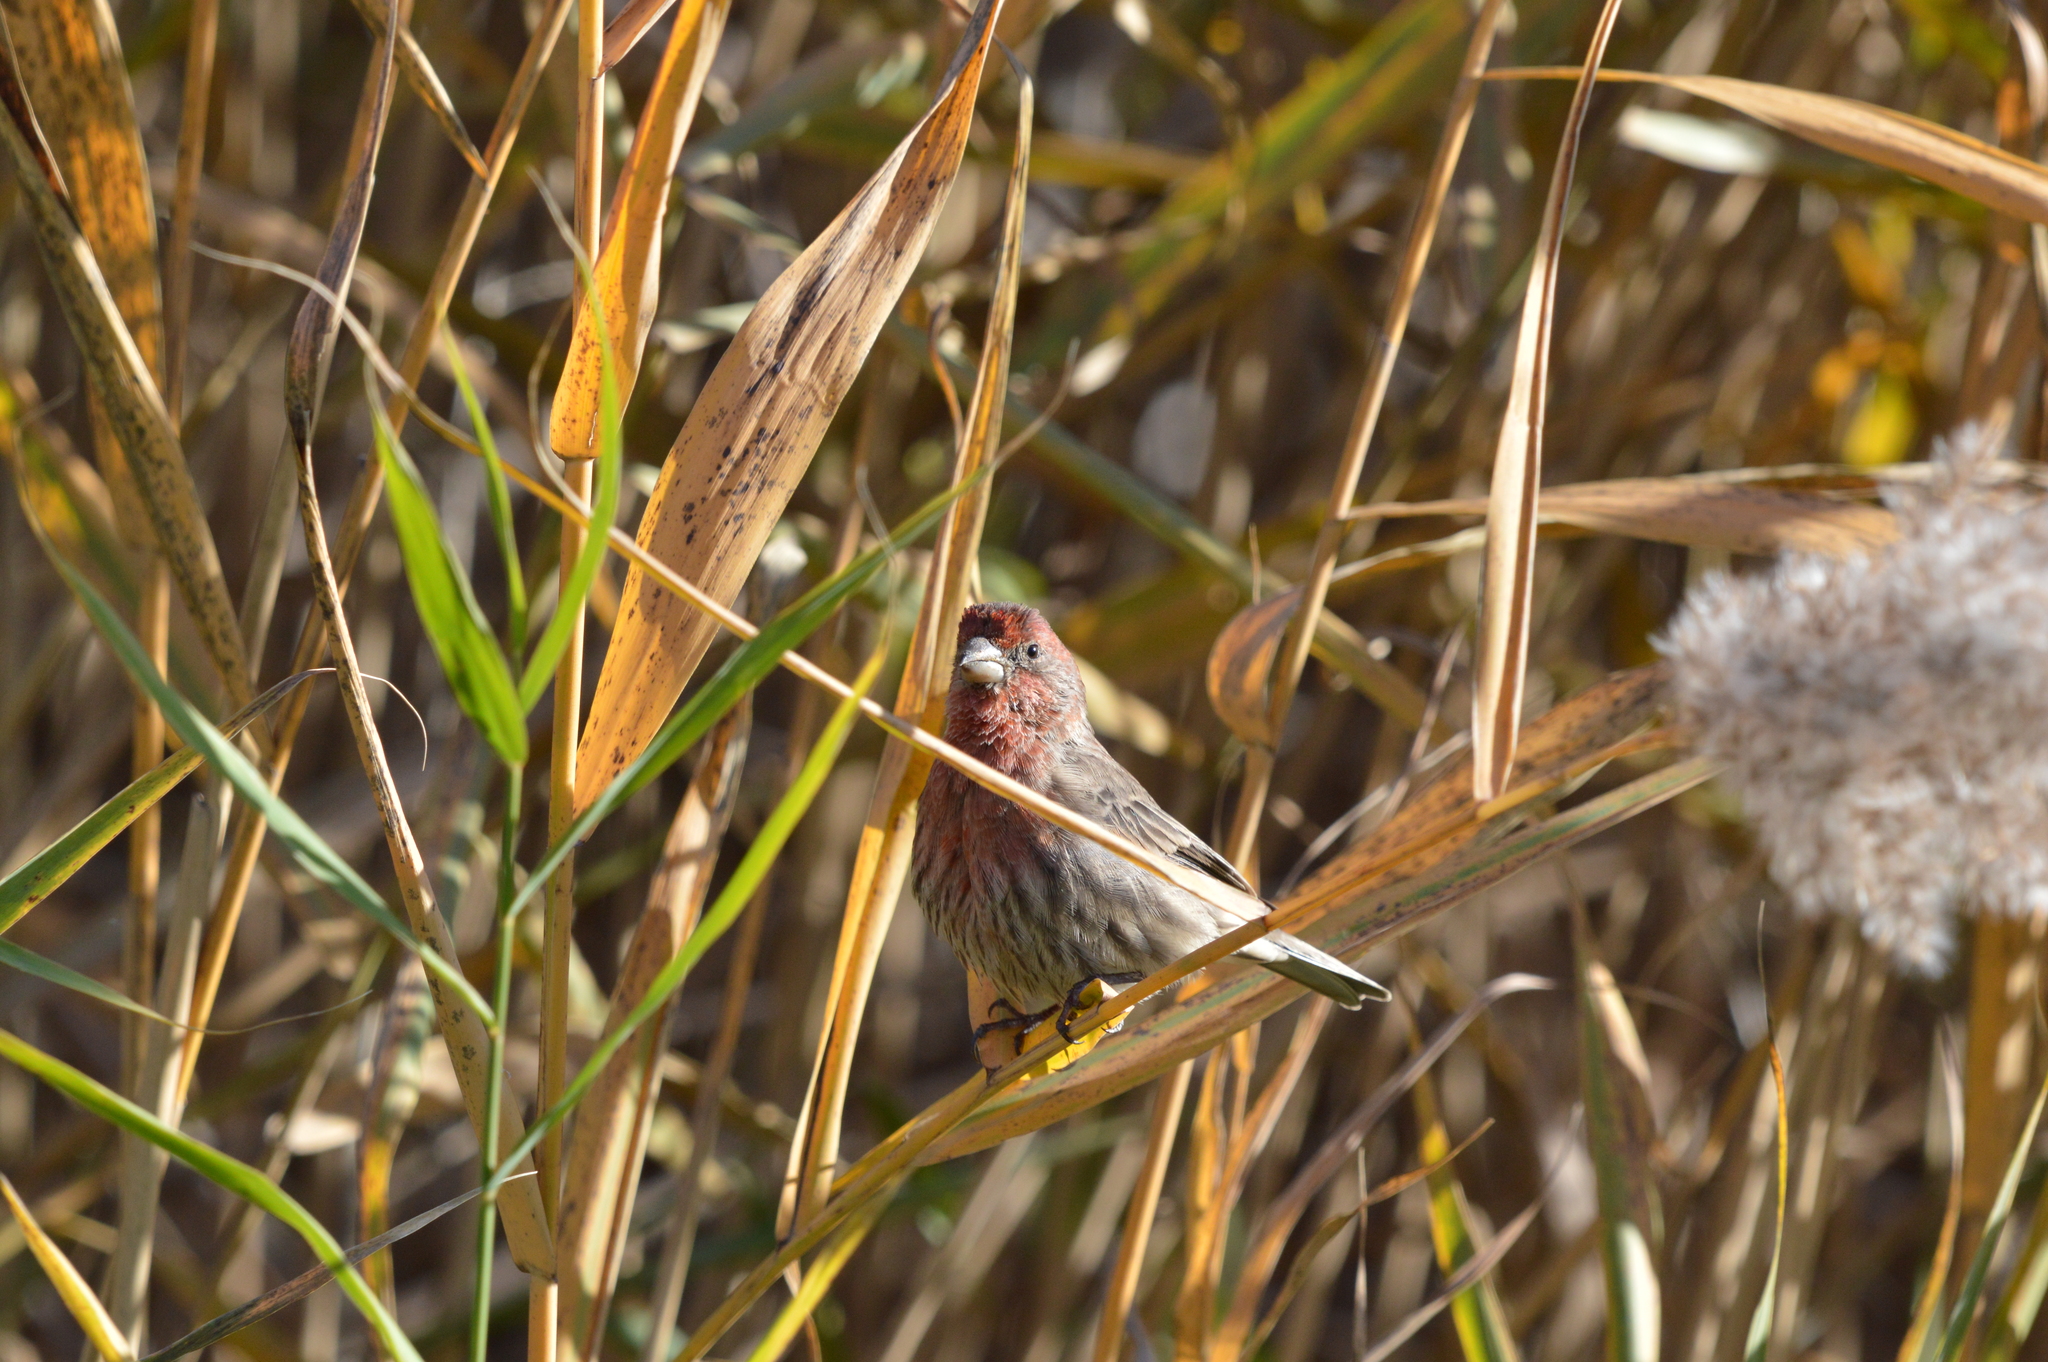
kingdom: Animalia
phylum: Chordata
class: Aves
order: Passeriformes
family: Fringillidae
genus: Haemorhous
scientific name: Haemorhous mexicanus
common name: House finch
